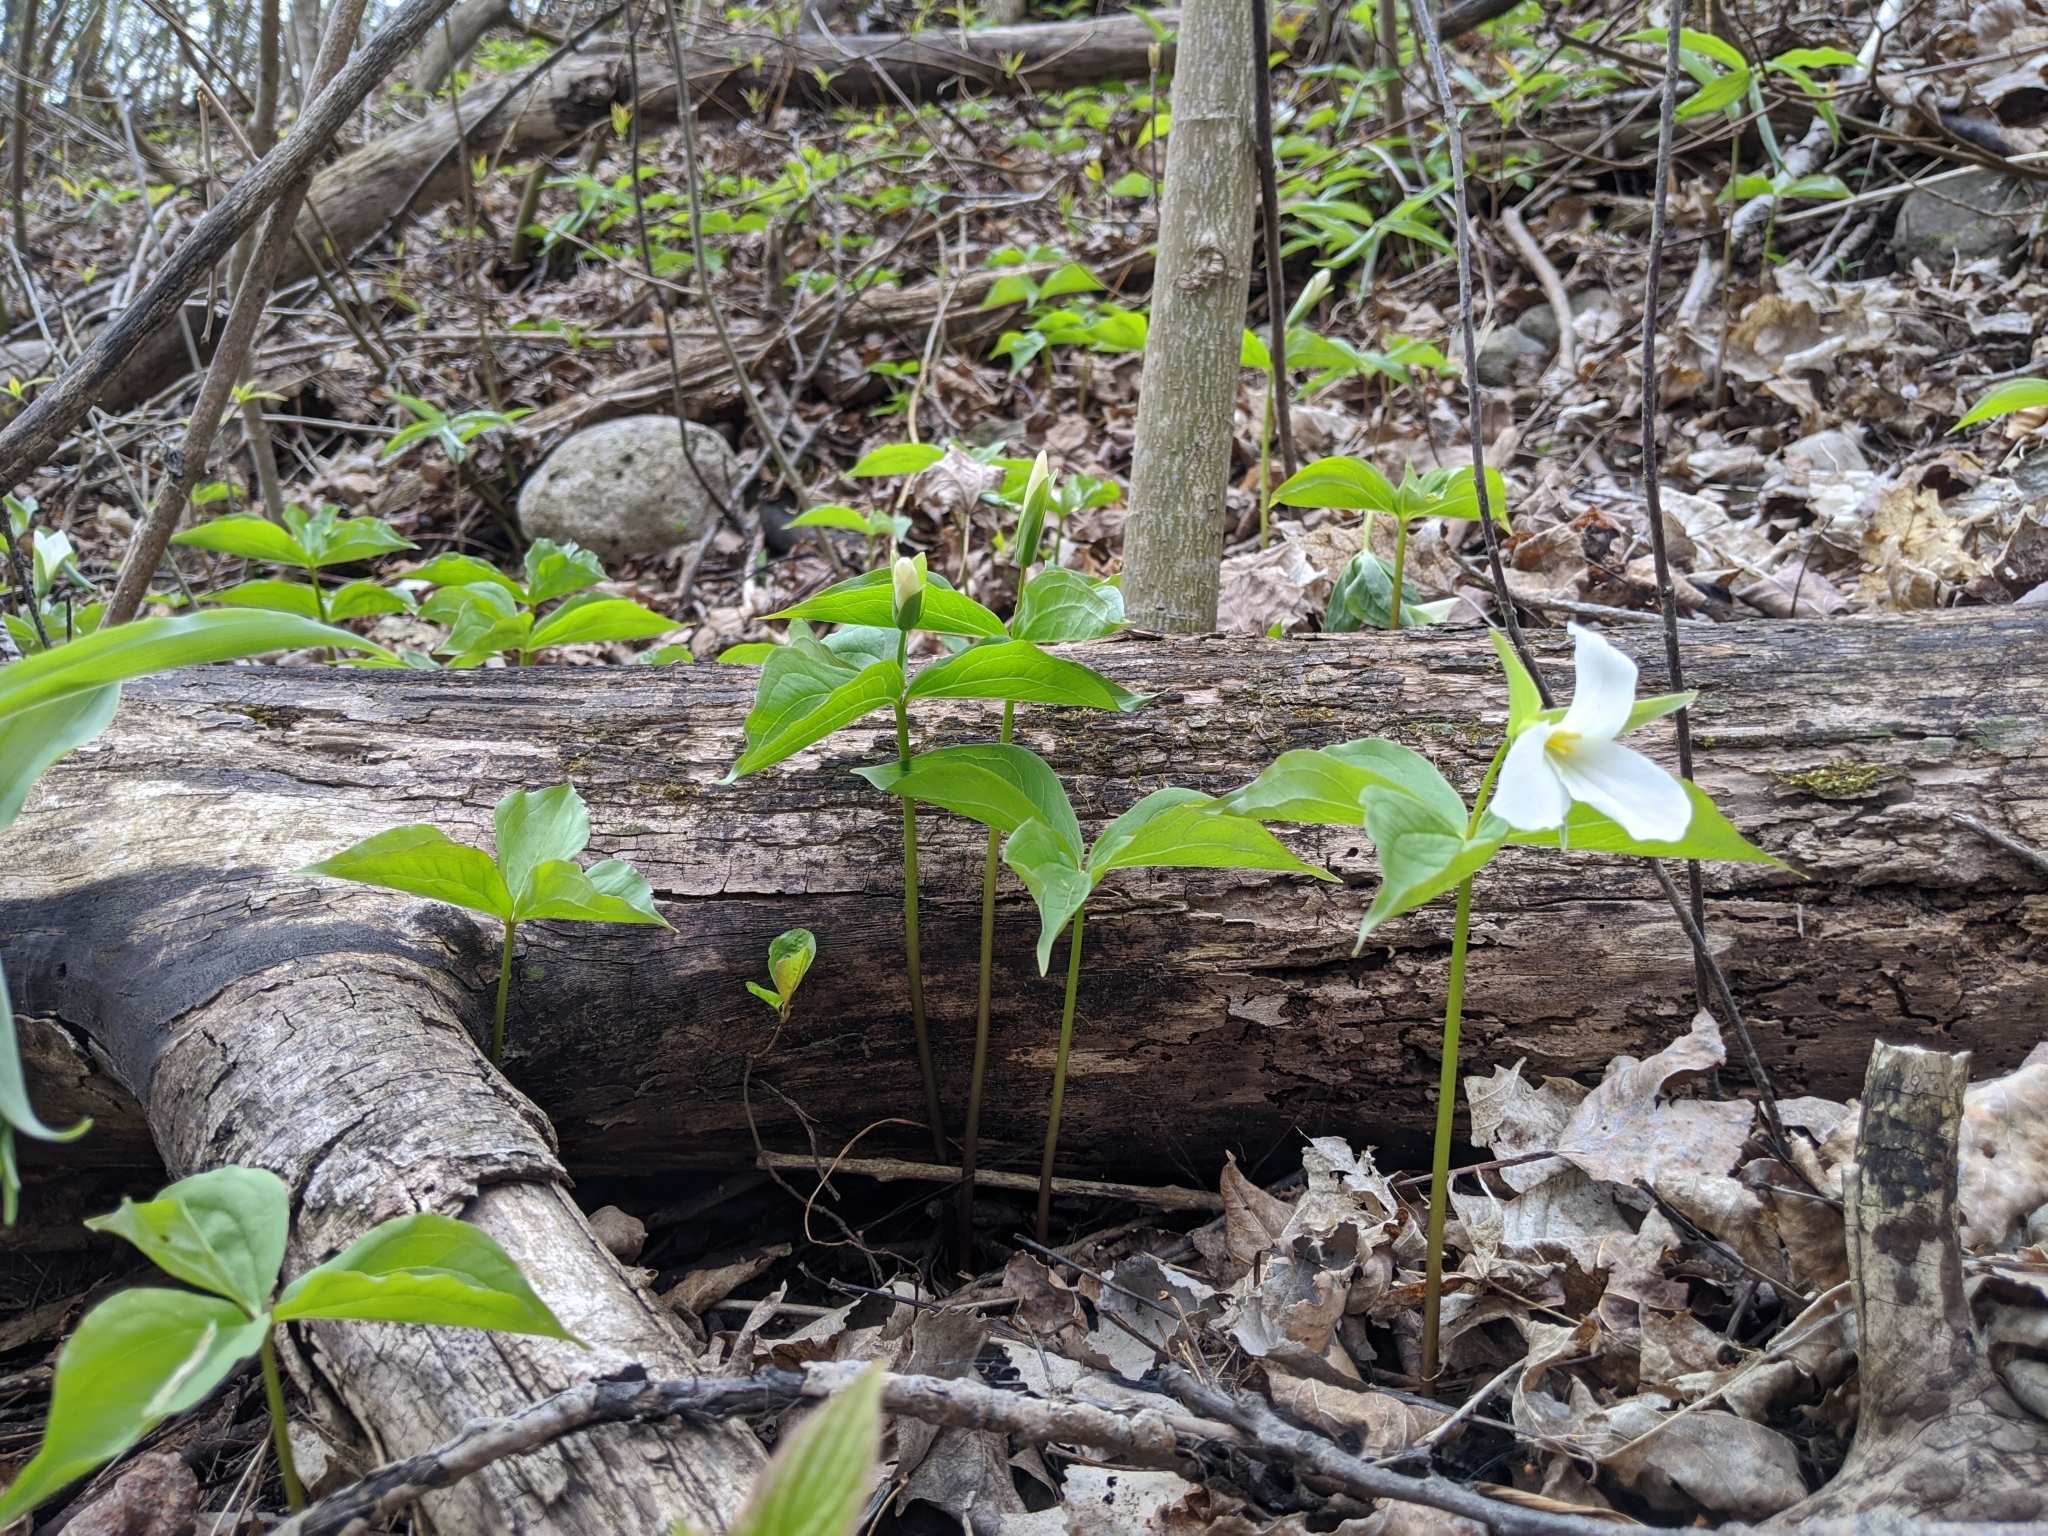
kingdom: Plantae
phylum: Tracheophyta
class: Liliopsida
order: Liliales
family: Melanthiaceae
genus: Trillium
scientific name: Trillium grandiflorum
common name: Great white trillium
